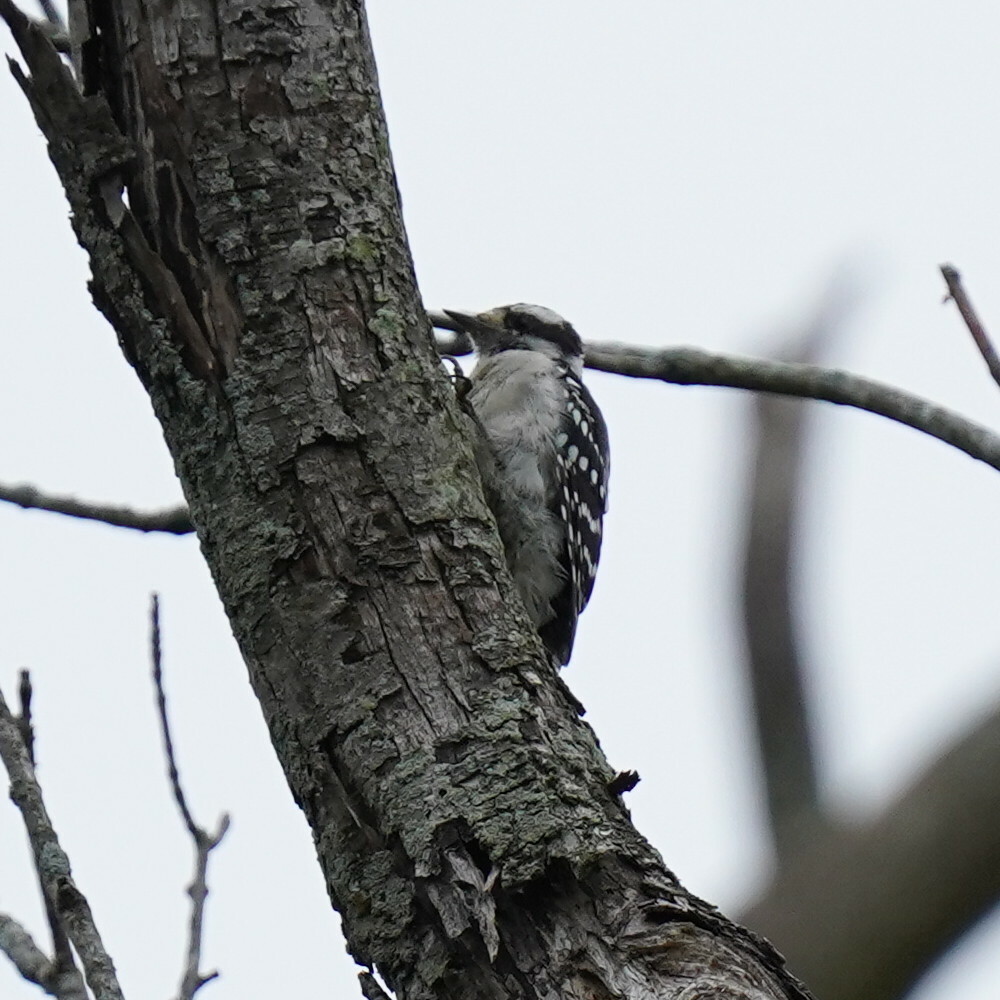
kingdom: Animalia
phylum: Chordata
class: Aves
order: Piciformes
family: Picidae
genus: Dryobates
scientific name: Dryobates pubescens
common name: Downy woodpecker
